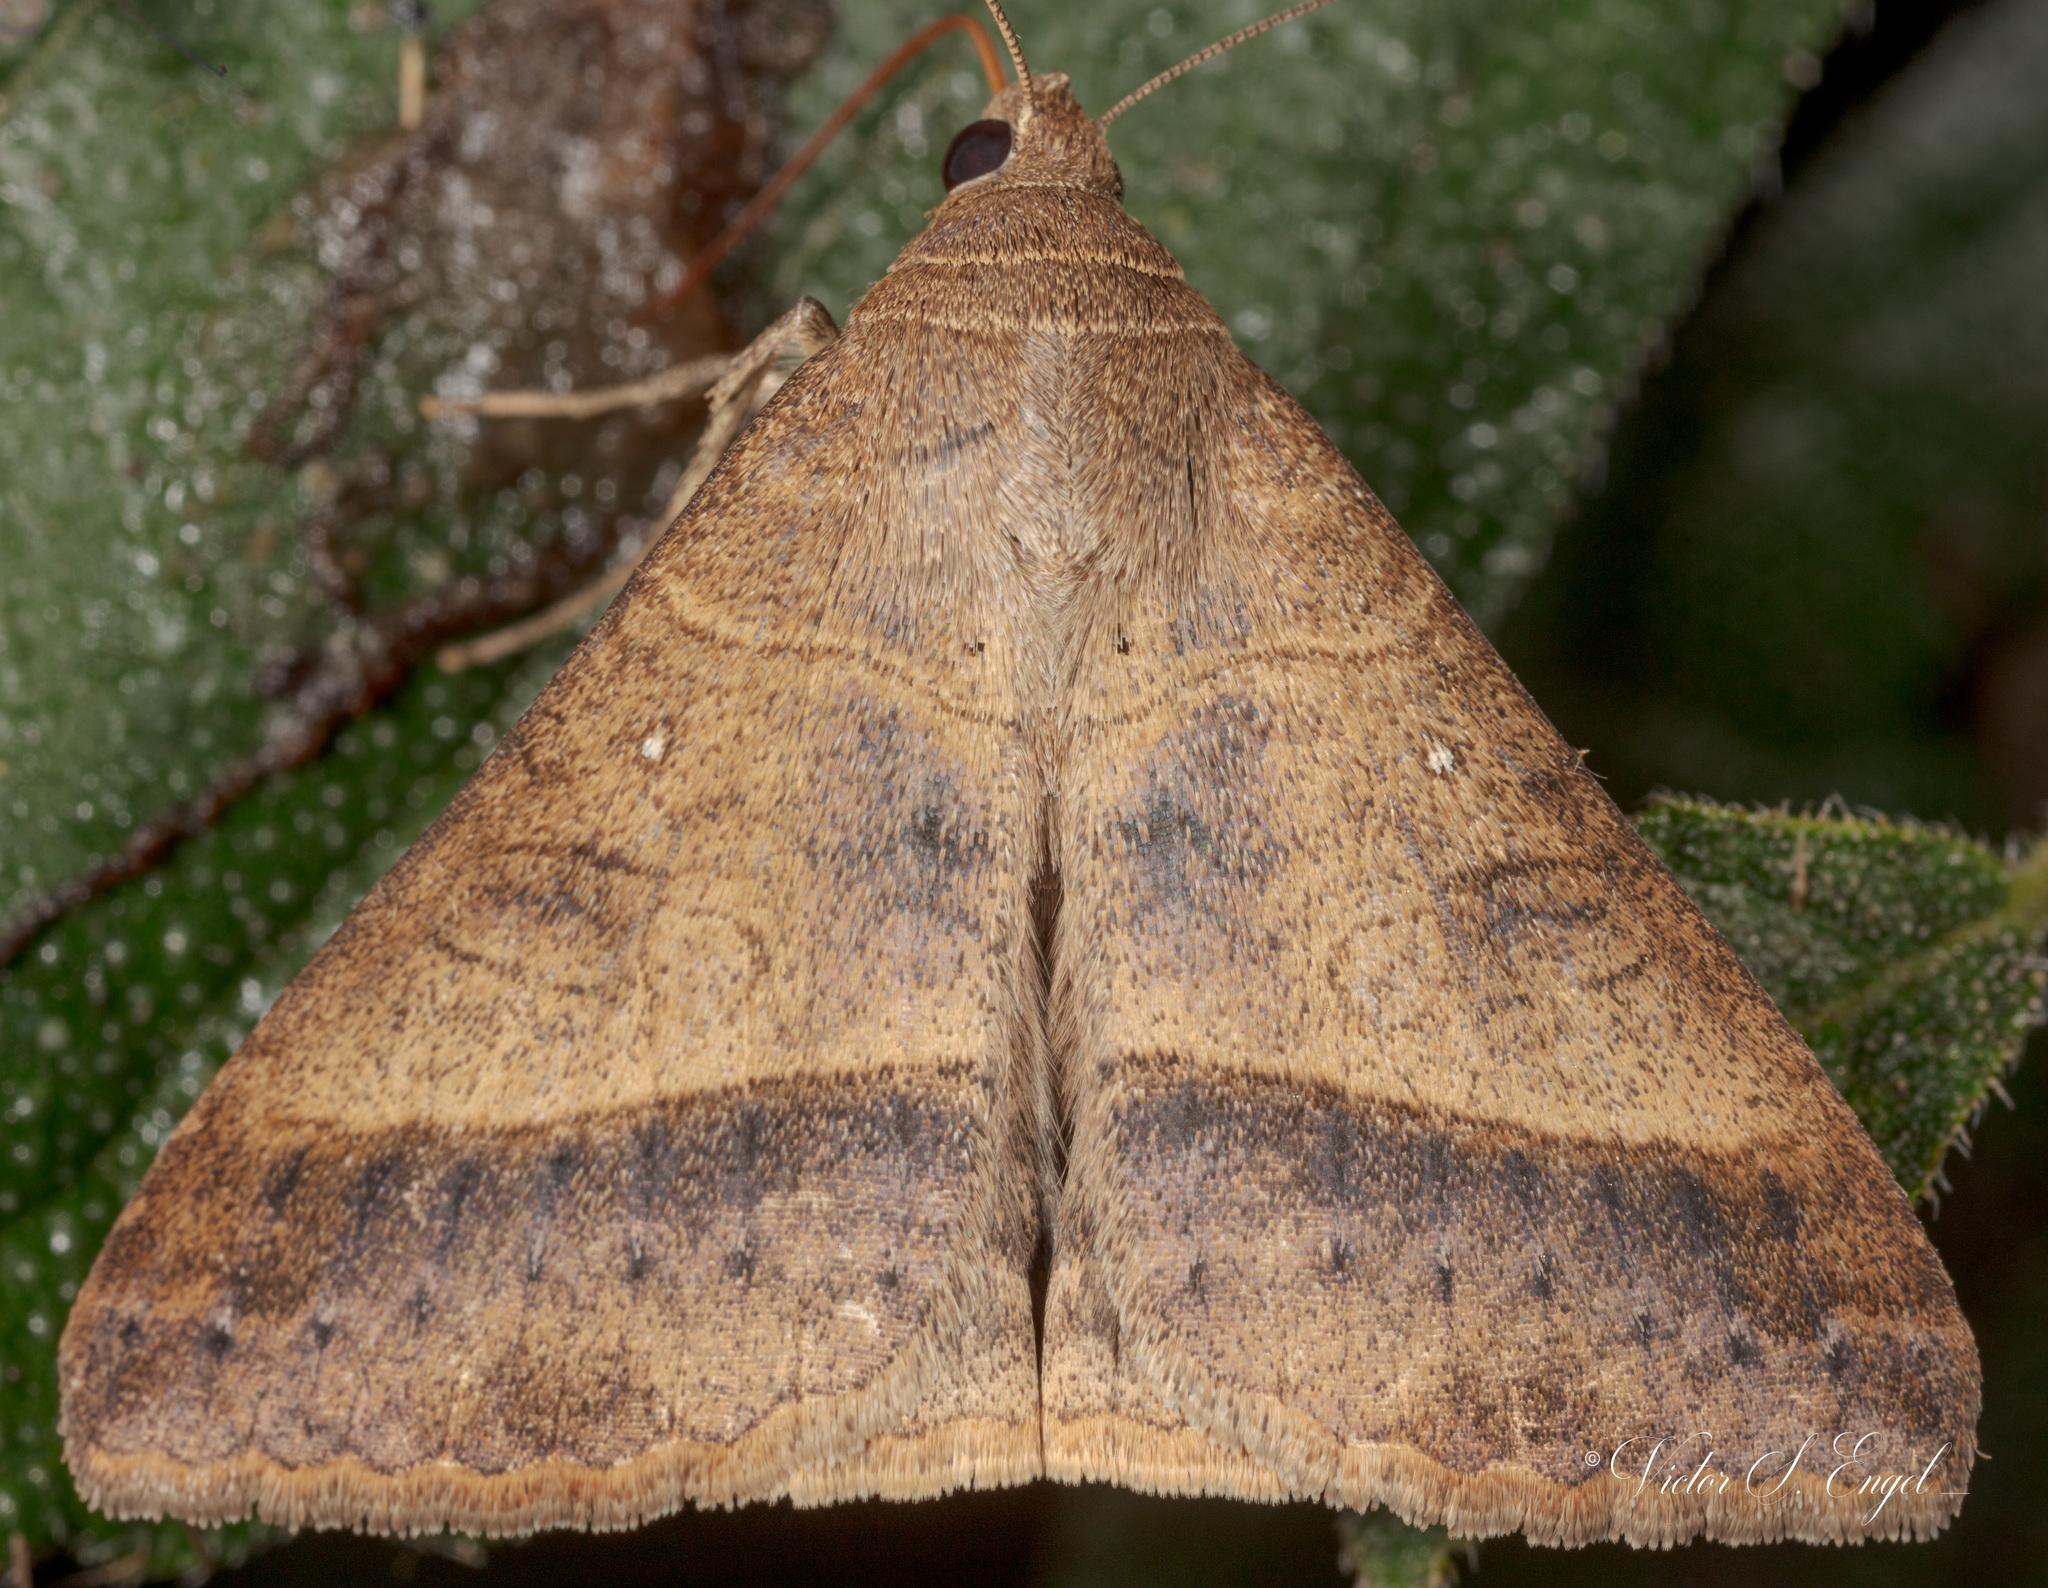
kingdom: Animalia
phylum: Arthropoda
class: Insecta
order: Lepidoptera
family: Erebidae
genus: Mocis
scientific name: Mocis texana
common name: Texas mocis moth
